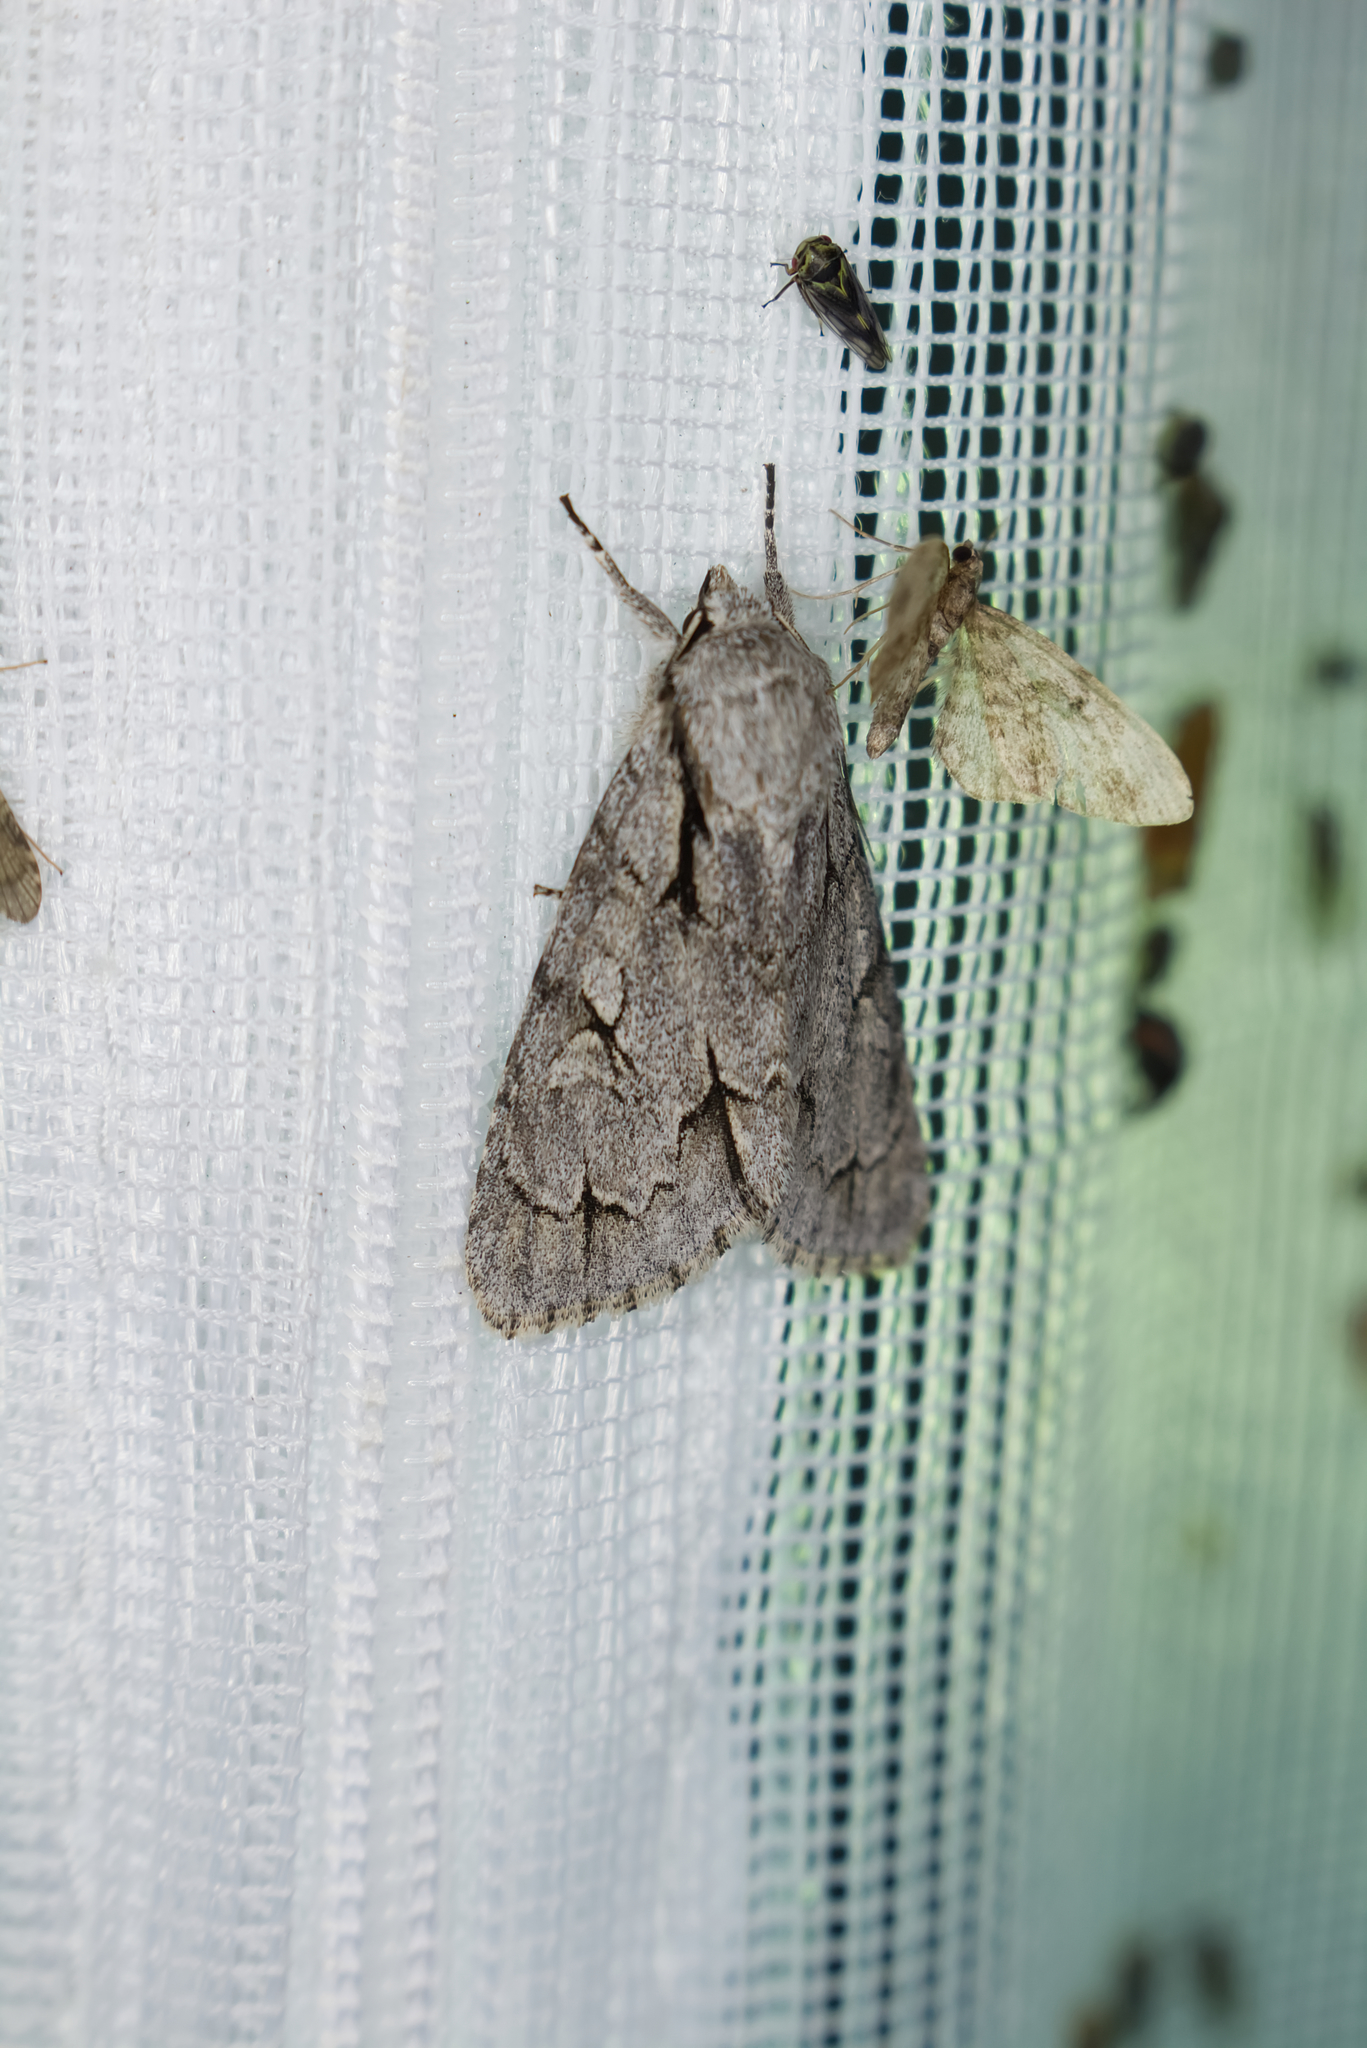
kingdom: Animalia
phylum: Arthropoda
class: Insecta
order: Lepidoptera
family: Noctuidae
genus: Acronicta
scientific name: Acronicta
